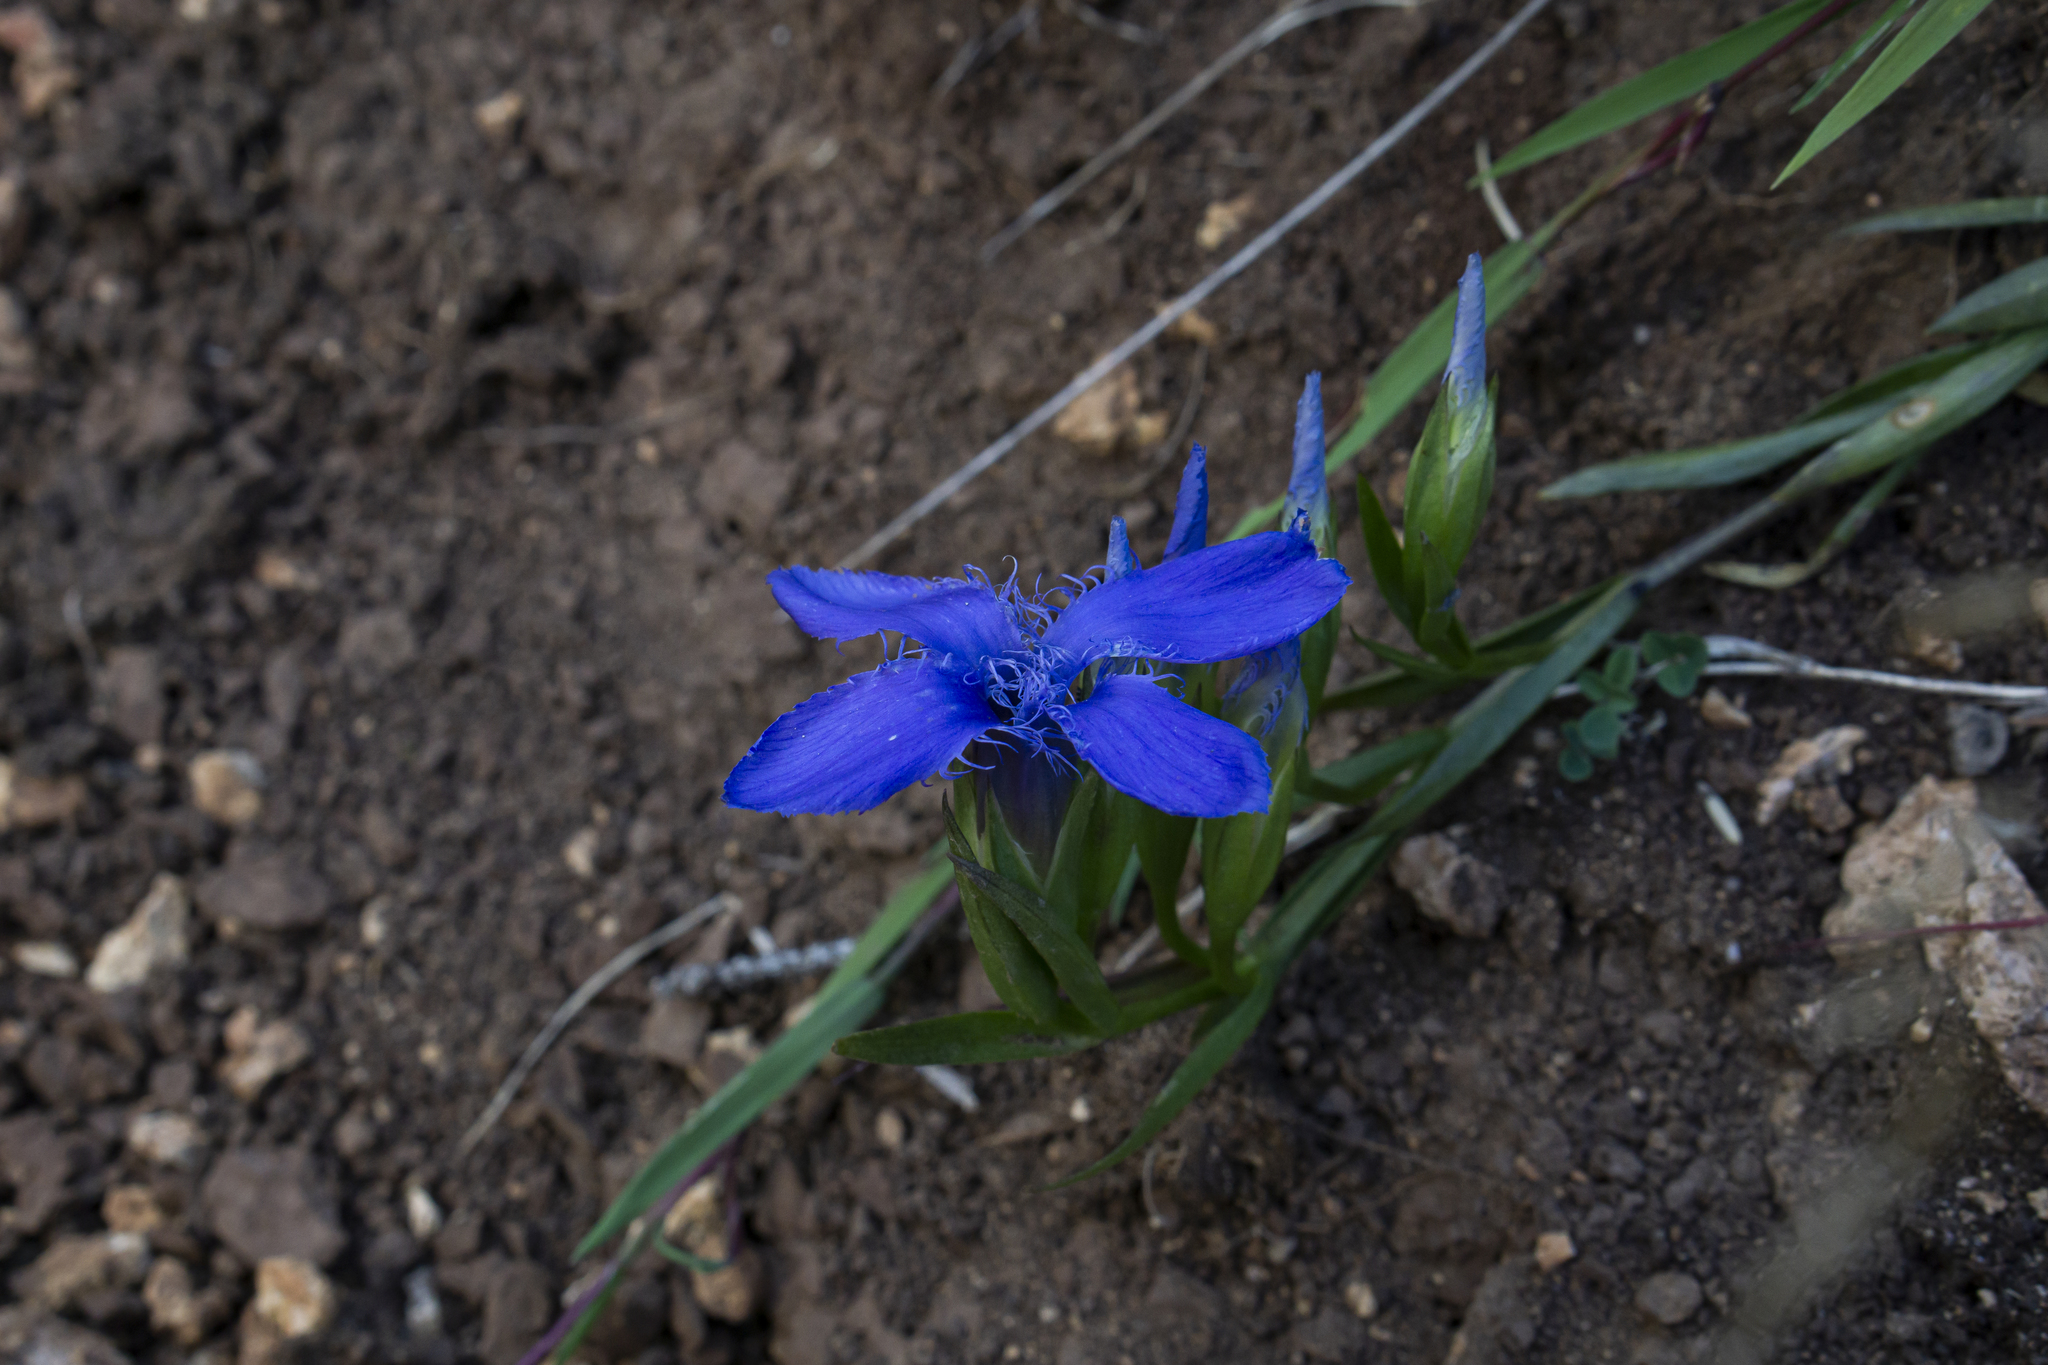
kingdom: Plantae
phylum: Tracheophyta
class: Magnoliopsida
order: Gentianales
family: Gentianaceae
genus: Gentianopsis
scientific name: Gentianopsis ciliata
